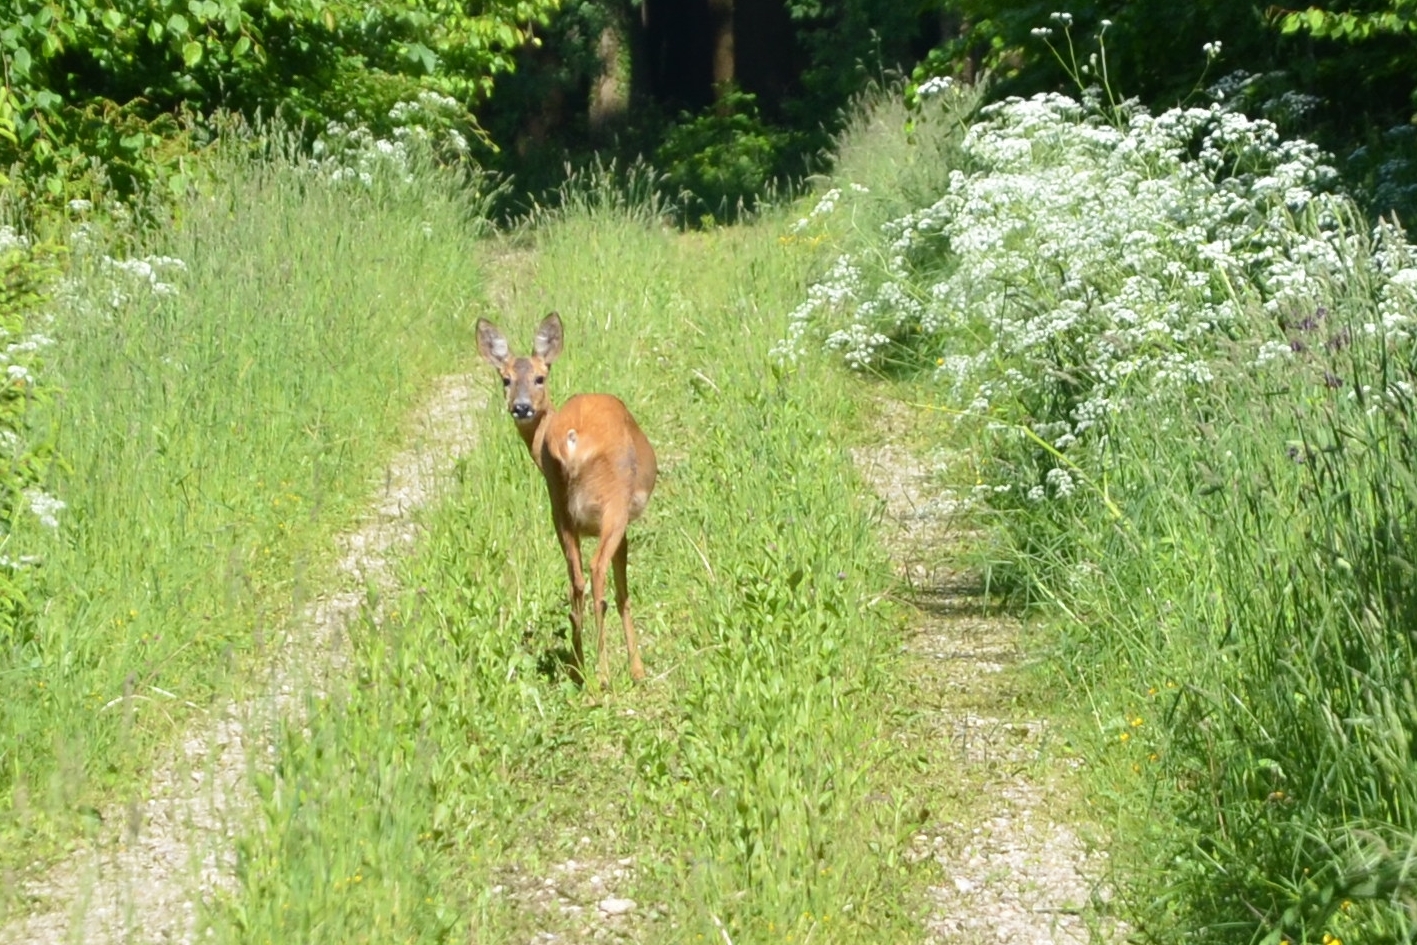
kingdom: Animalia
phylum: Chordata
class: Mammalia
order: Artiodactyla
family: Cervidae
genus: Capreolus
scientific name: Capreolus capreolus
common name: Western roe deer
